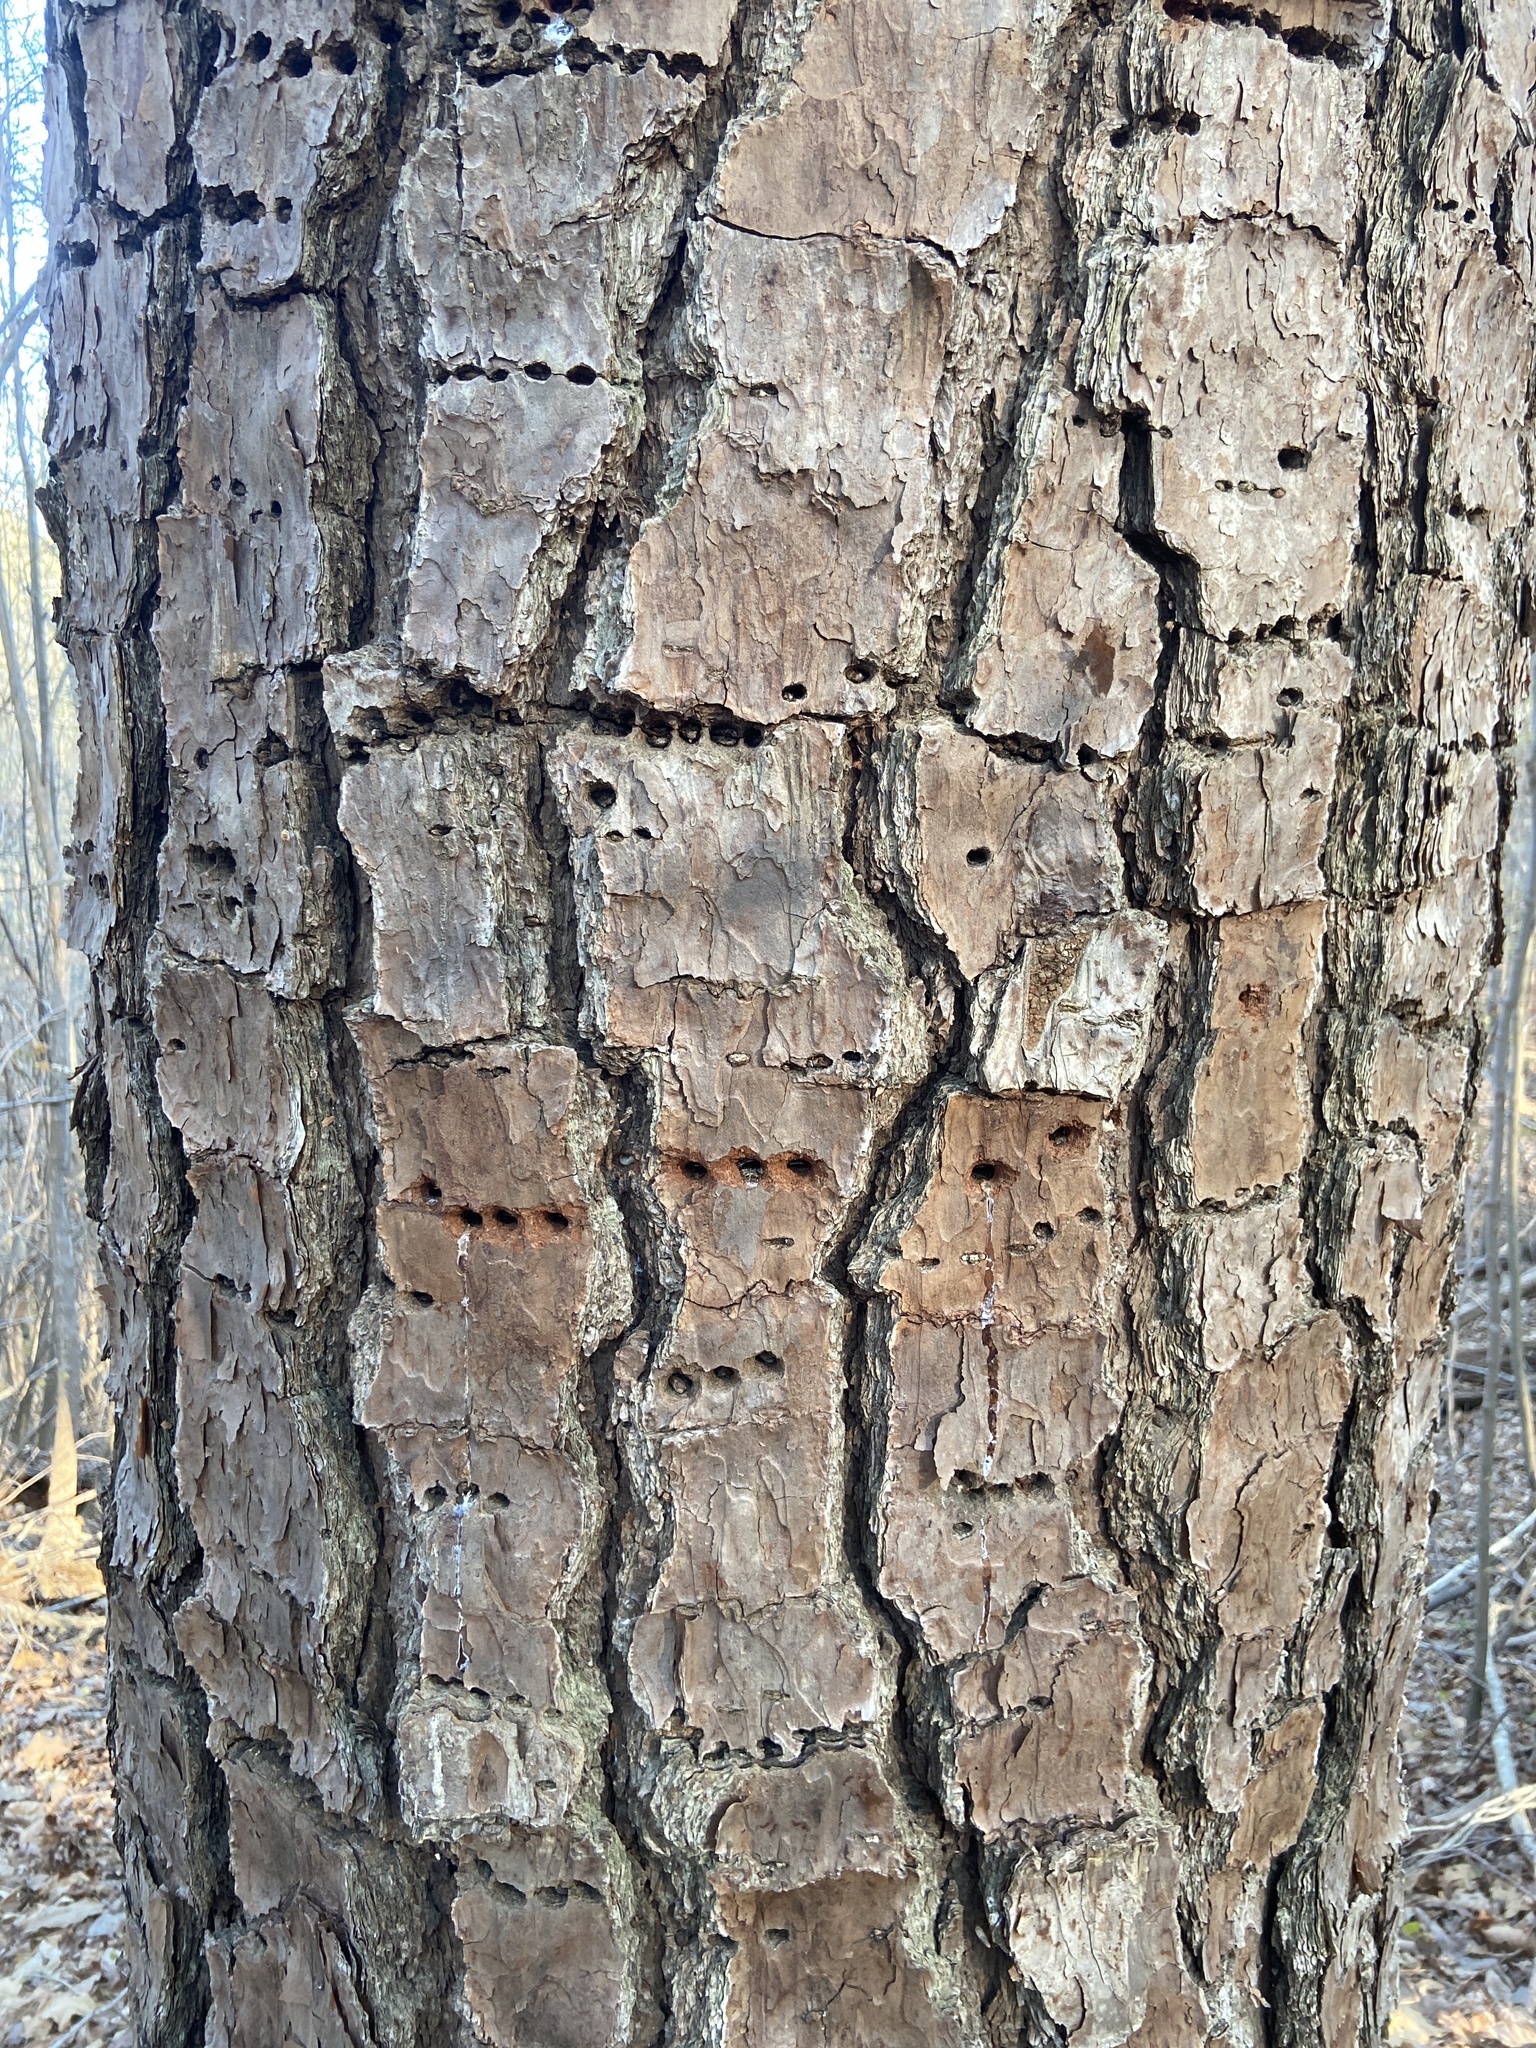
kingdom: Animalia
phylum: Chordata
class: Aves
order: Piciformes
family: Picidae
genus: Sphyrapicus
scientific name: Sphyrapicus varius
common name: Yellow-bellied sapsucker
